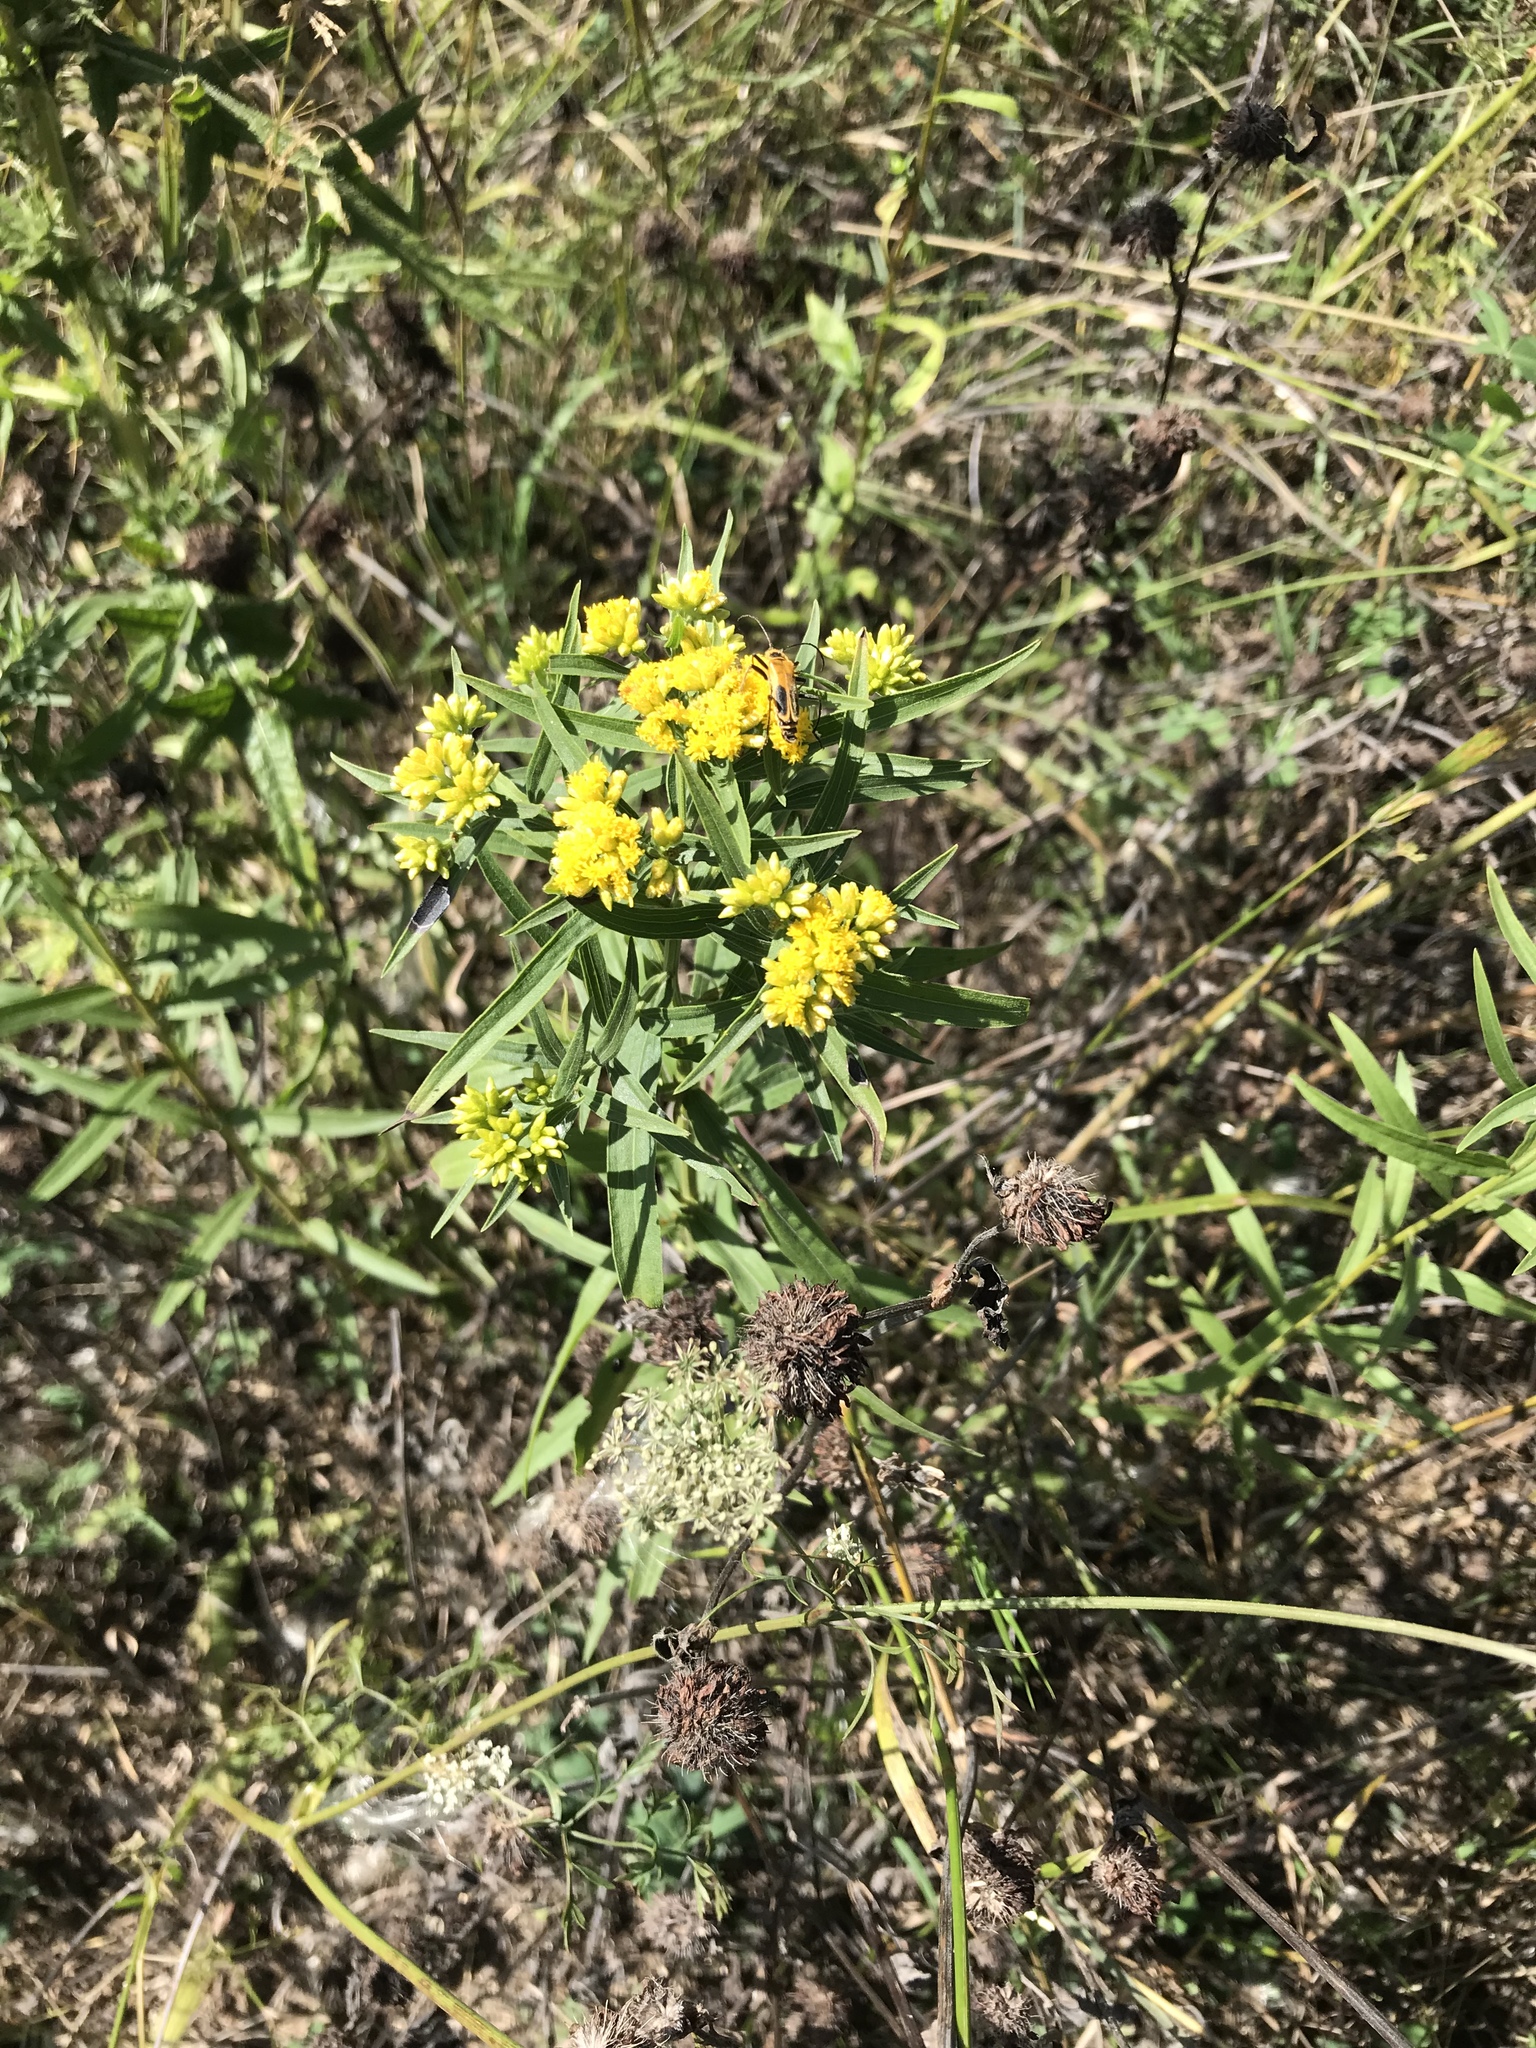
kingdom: Plantae
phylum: Tracheophyta
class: Magnoliopsida
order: Asterales
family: Asteraceae
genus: Euthamia
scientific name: Euthamia graminifolia
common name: Common goldentop
